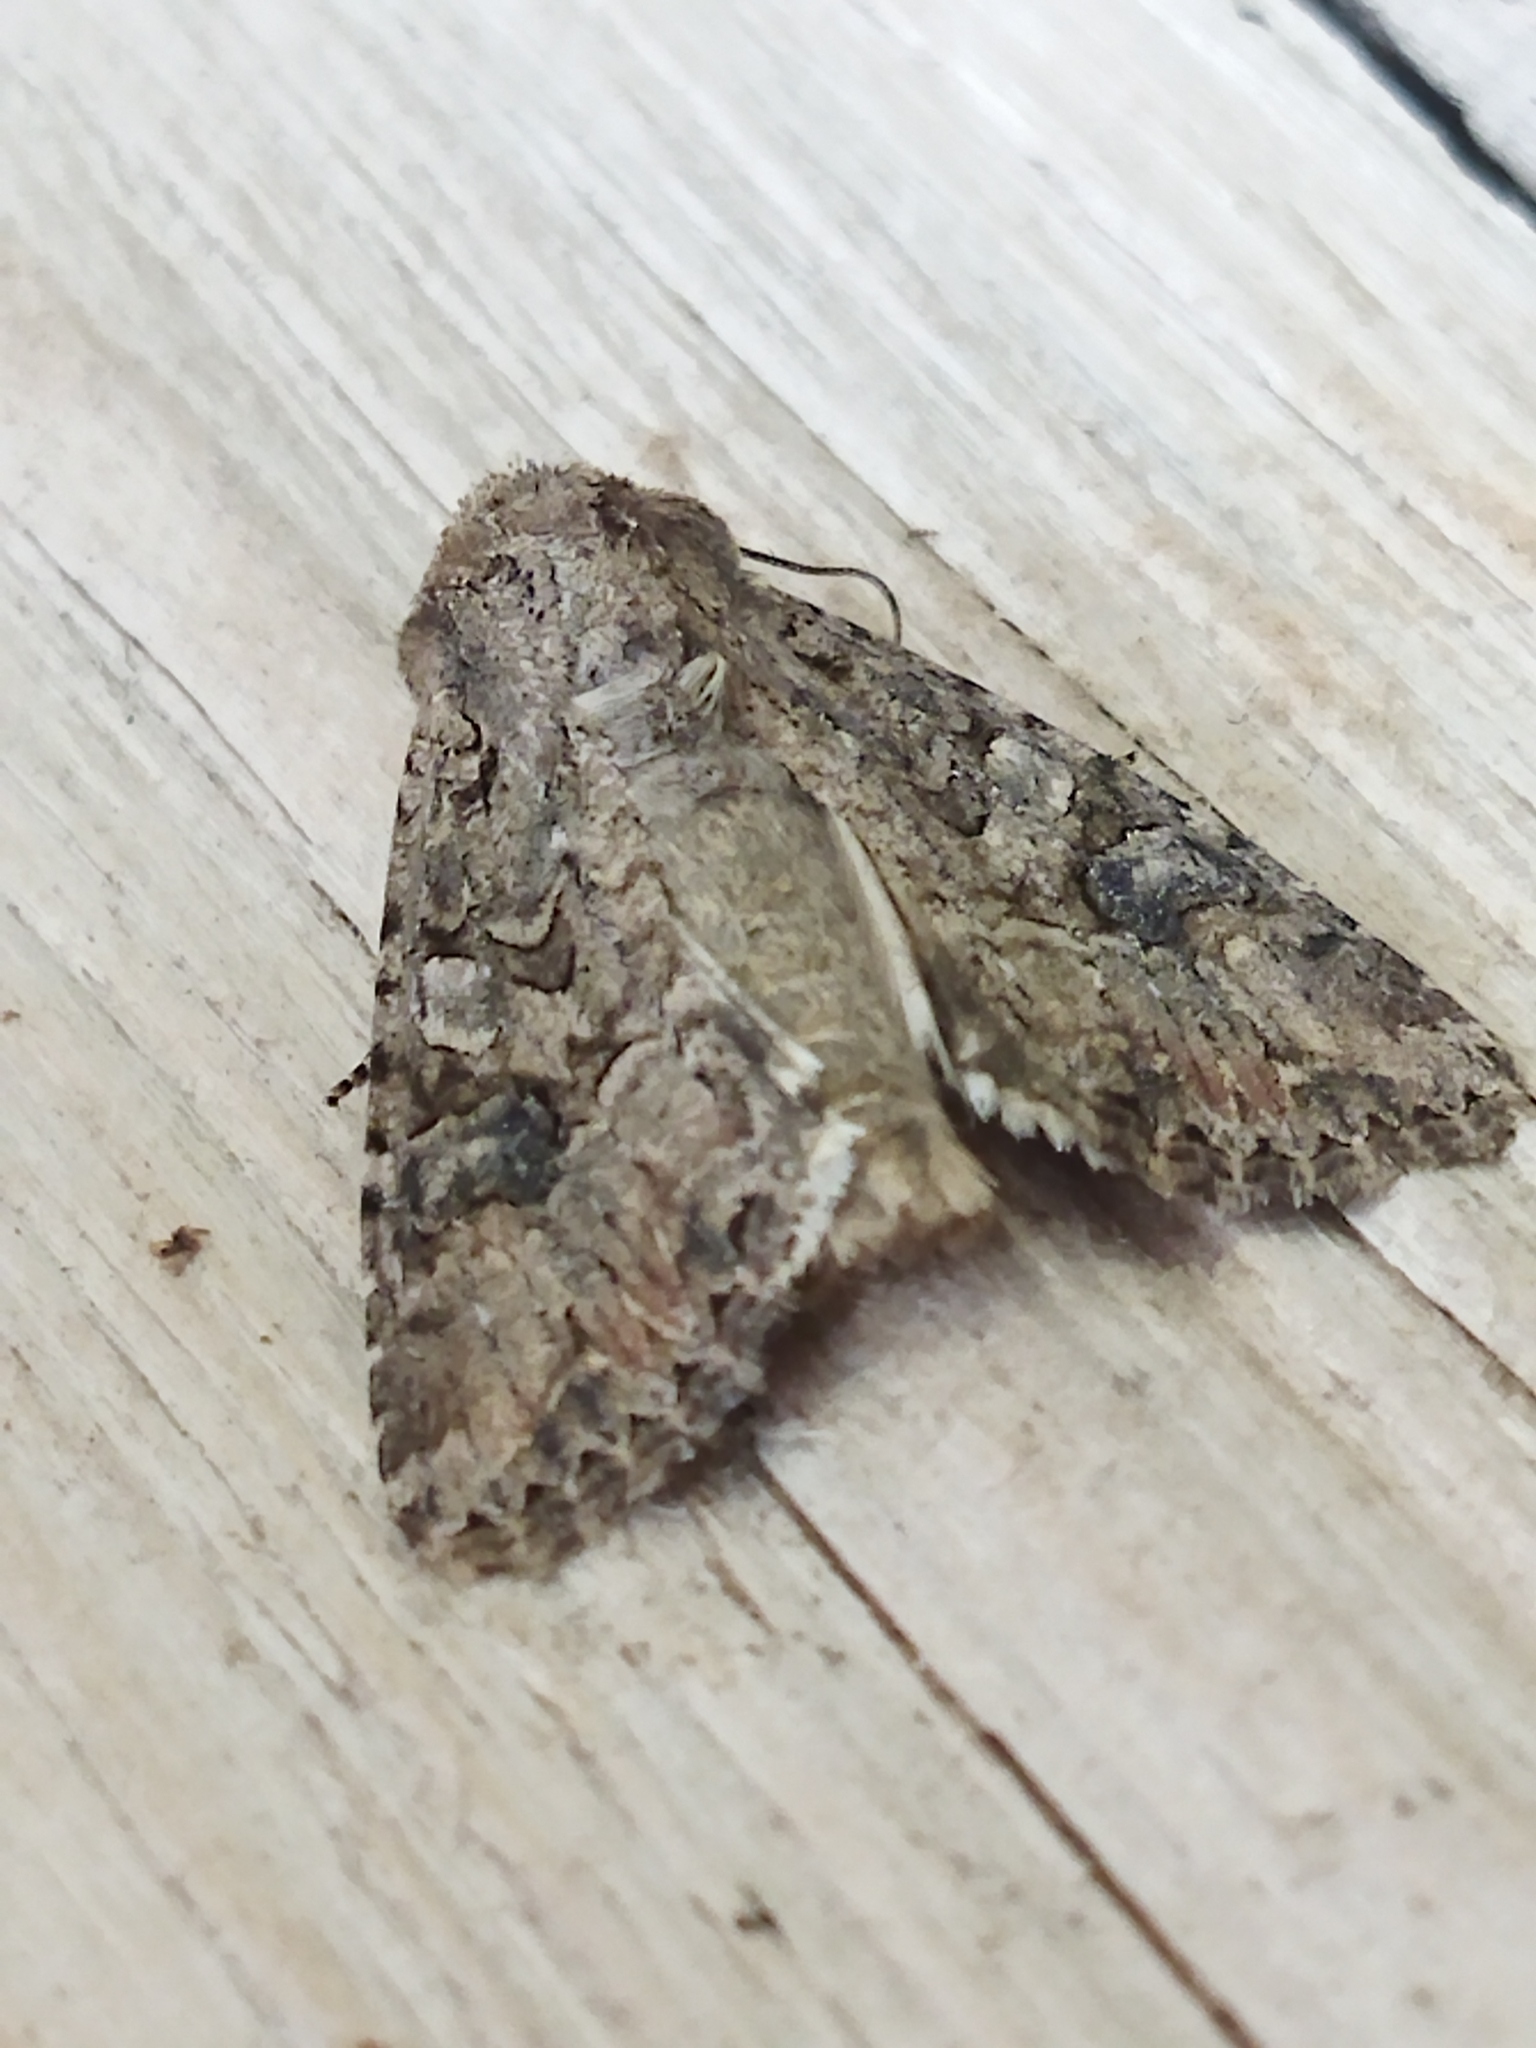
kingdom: Animalia
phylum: Arthropoda
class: Insecta
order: Lepidoptera
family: Noctuidae
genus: Anarta
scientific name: Anarta trifolii
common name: Clover cutworm moth
